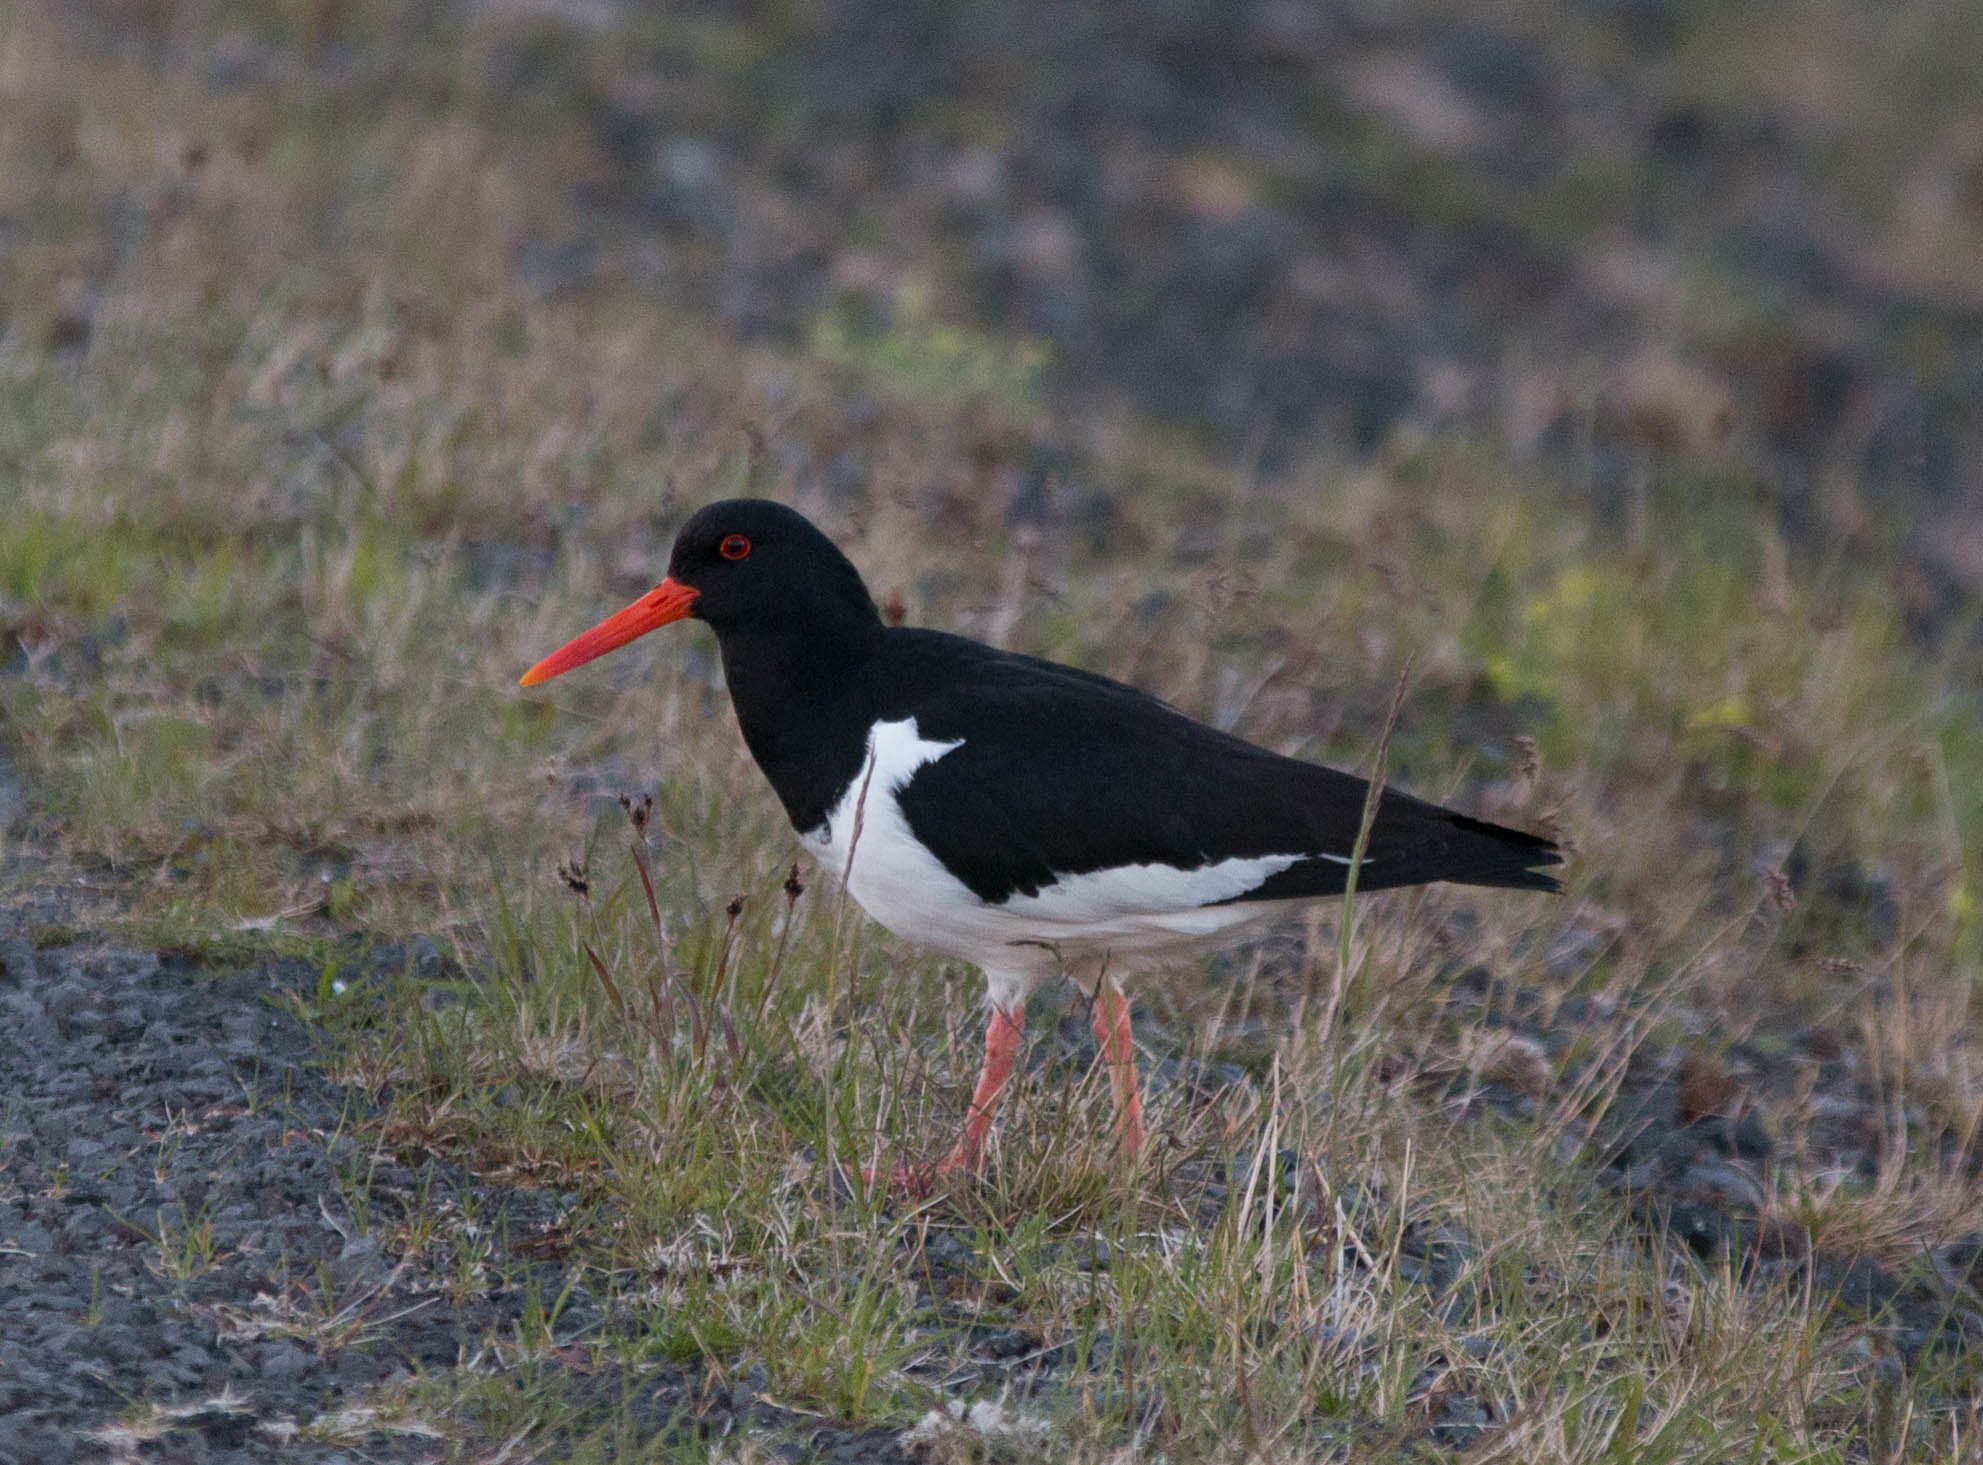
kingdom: Animalia
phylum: Chordata
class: Aves
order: Charadriiformes
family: Haematopodidae
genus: Haematopus
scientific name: Haematopus ostralegus
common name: Eurasian oystercatcher
